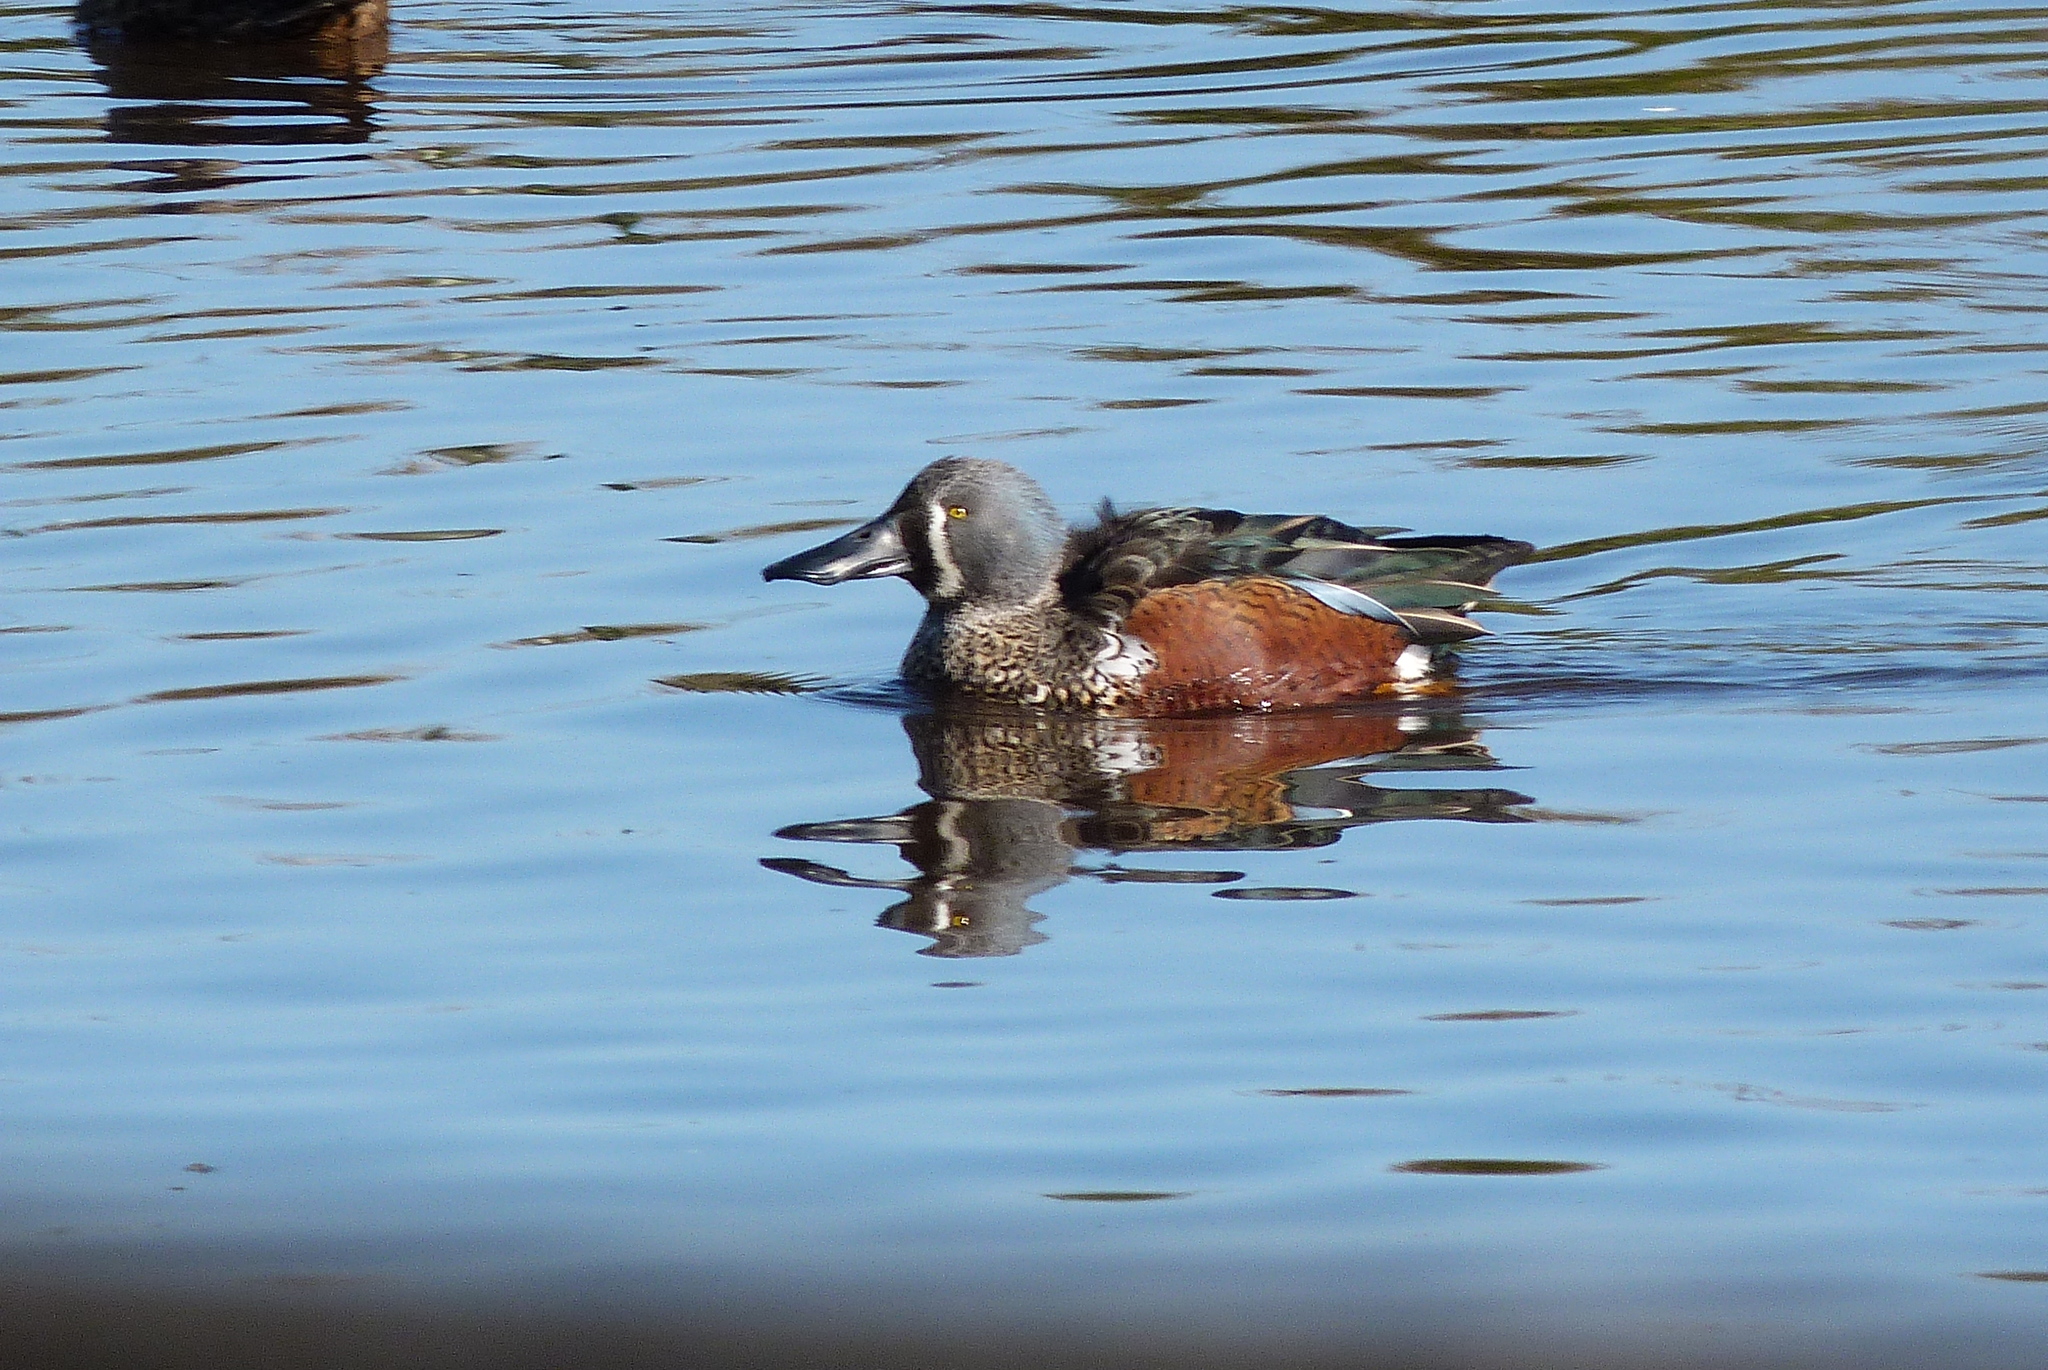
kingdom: Animalia
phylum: Chordata
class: Aves
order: Anseriformes
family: Anatidae
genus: Spatula
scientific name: Spatula rhynchotis
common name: Australian shoveler
